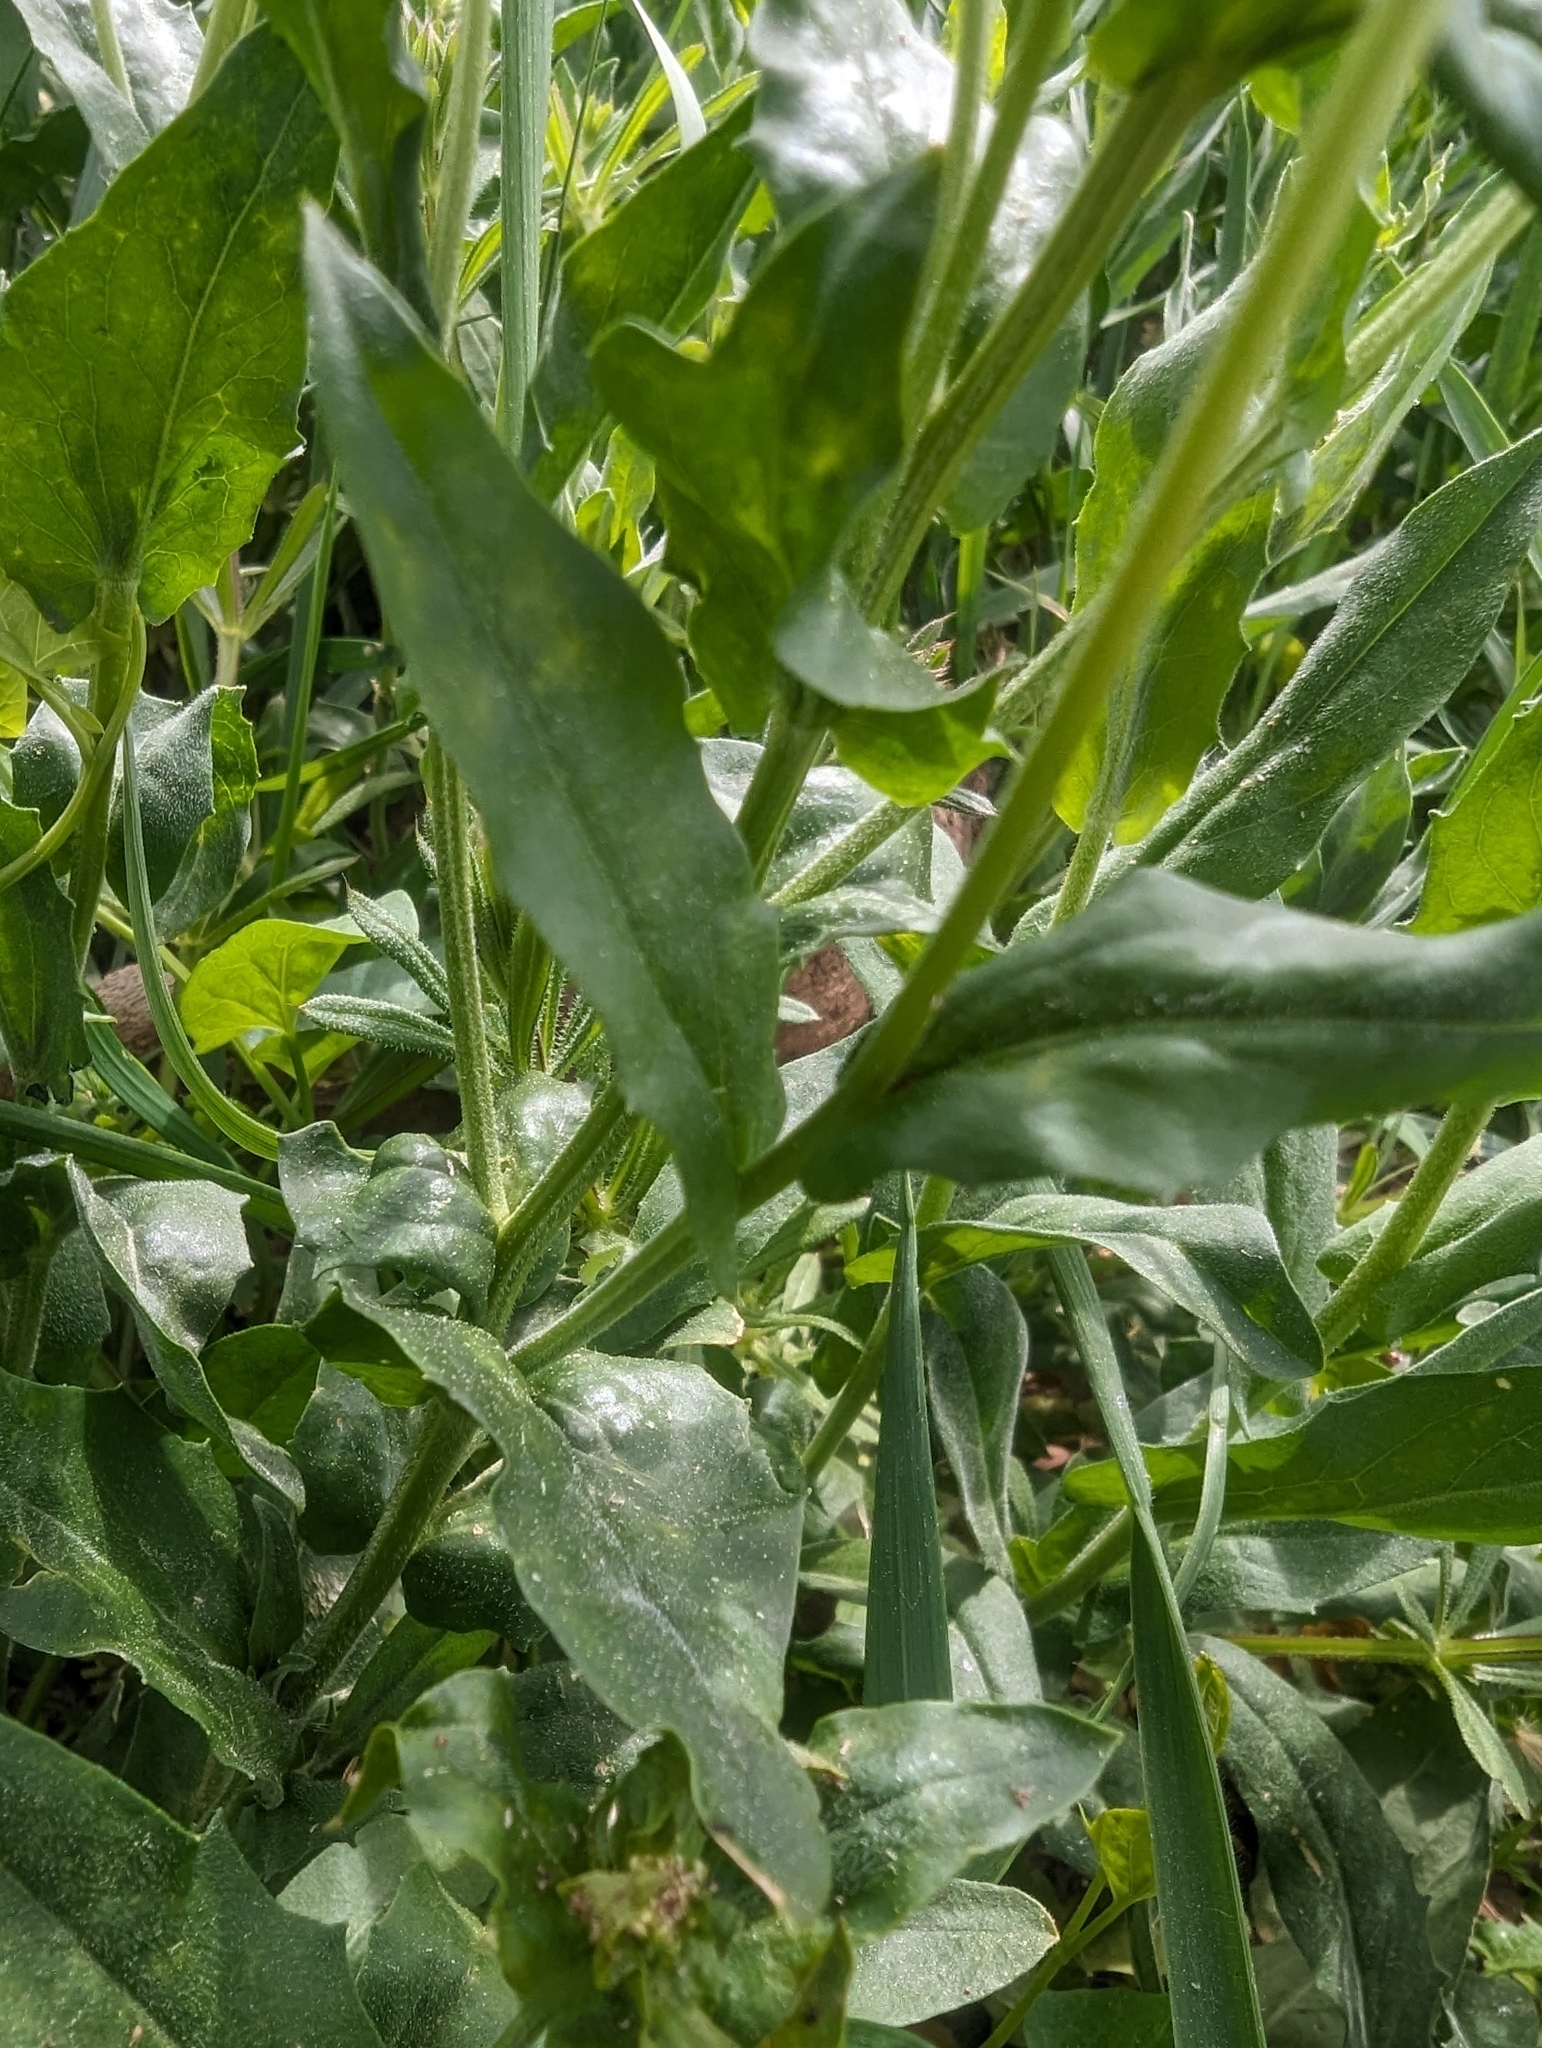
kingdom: Plantae
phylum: Tracheophyta
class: Magnoliopsida
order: Brassicales
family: Brassicaceae
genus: Lepidium
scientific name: Lepidium draba
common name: Hoary cress
